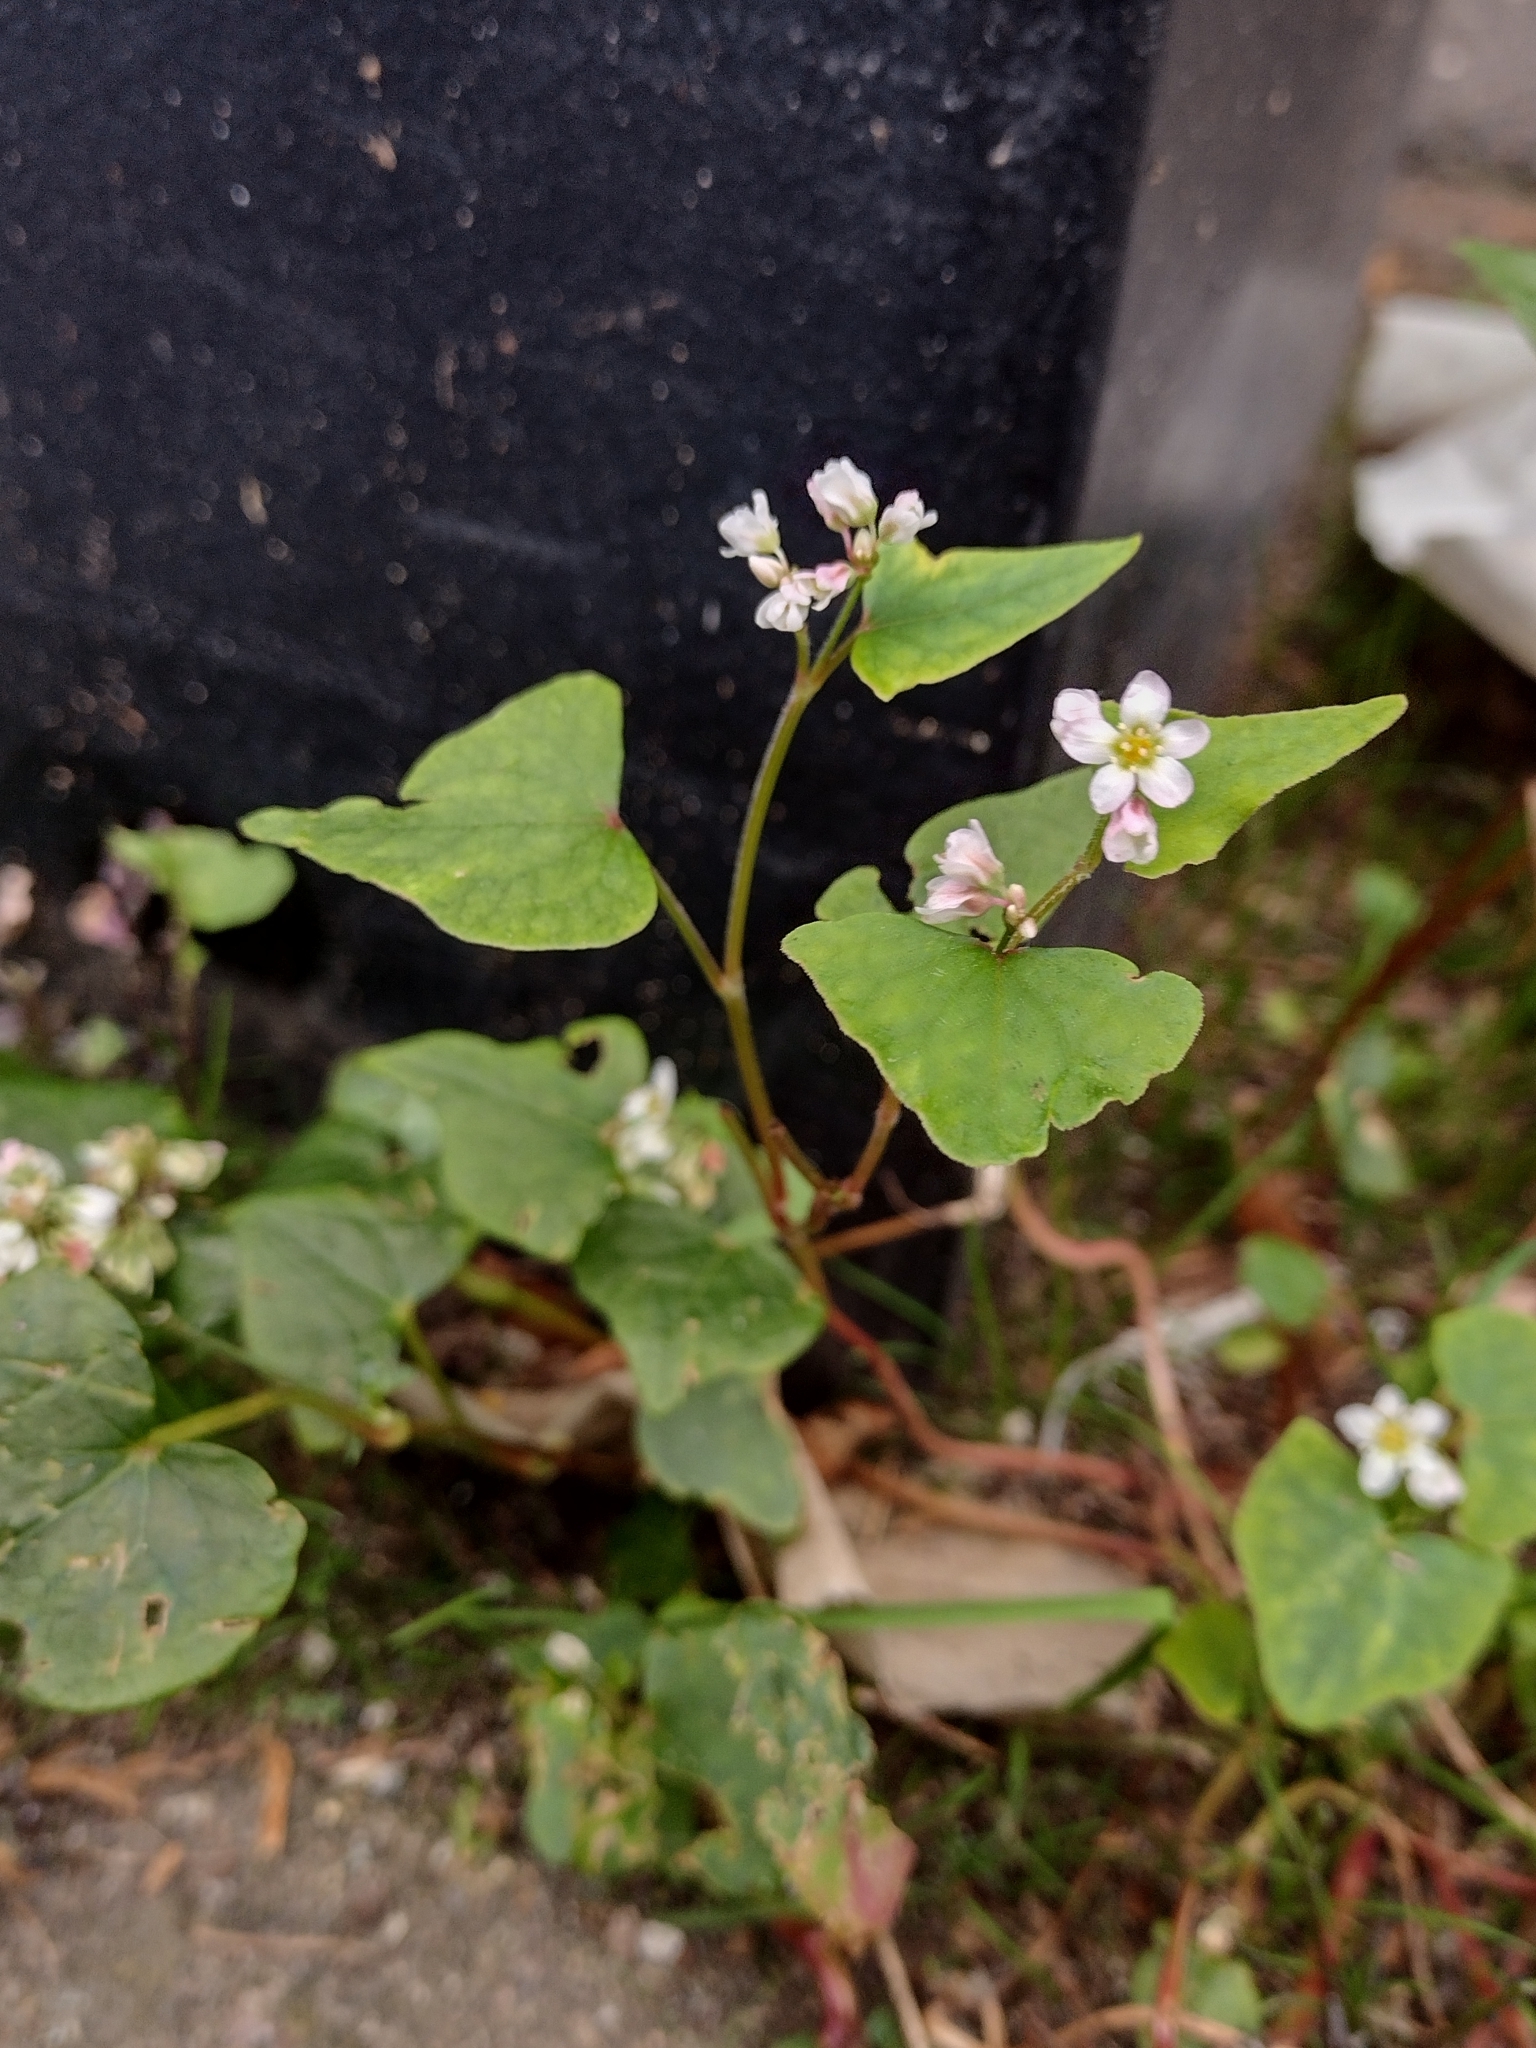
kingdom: Plantae
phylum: Tracheophyta
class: Magnoliopsida
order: Caryophyllales
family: Polygonaceae
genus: Fagopyrum
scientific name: Fagopyrum esculentum
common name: Buckwheat
